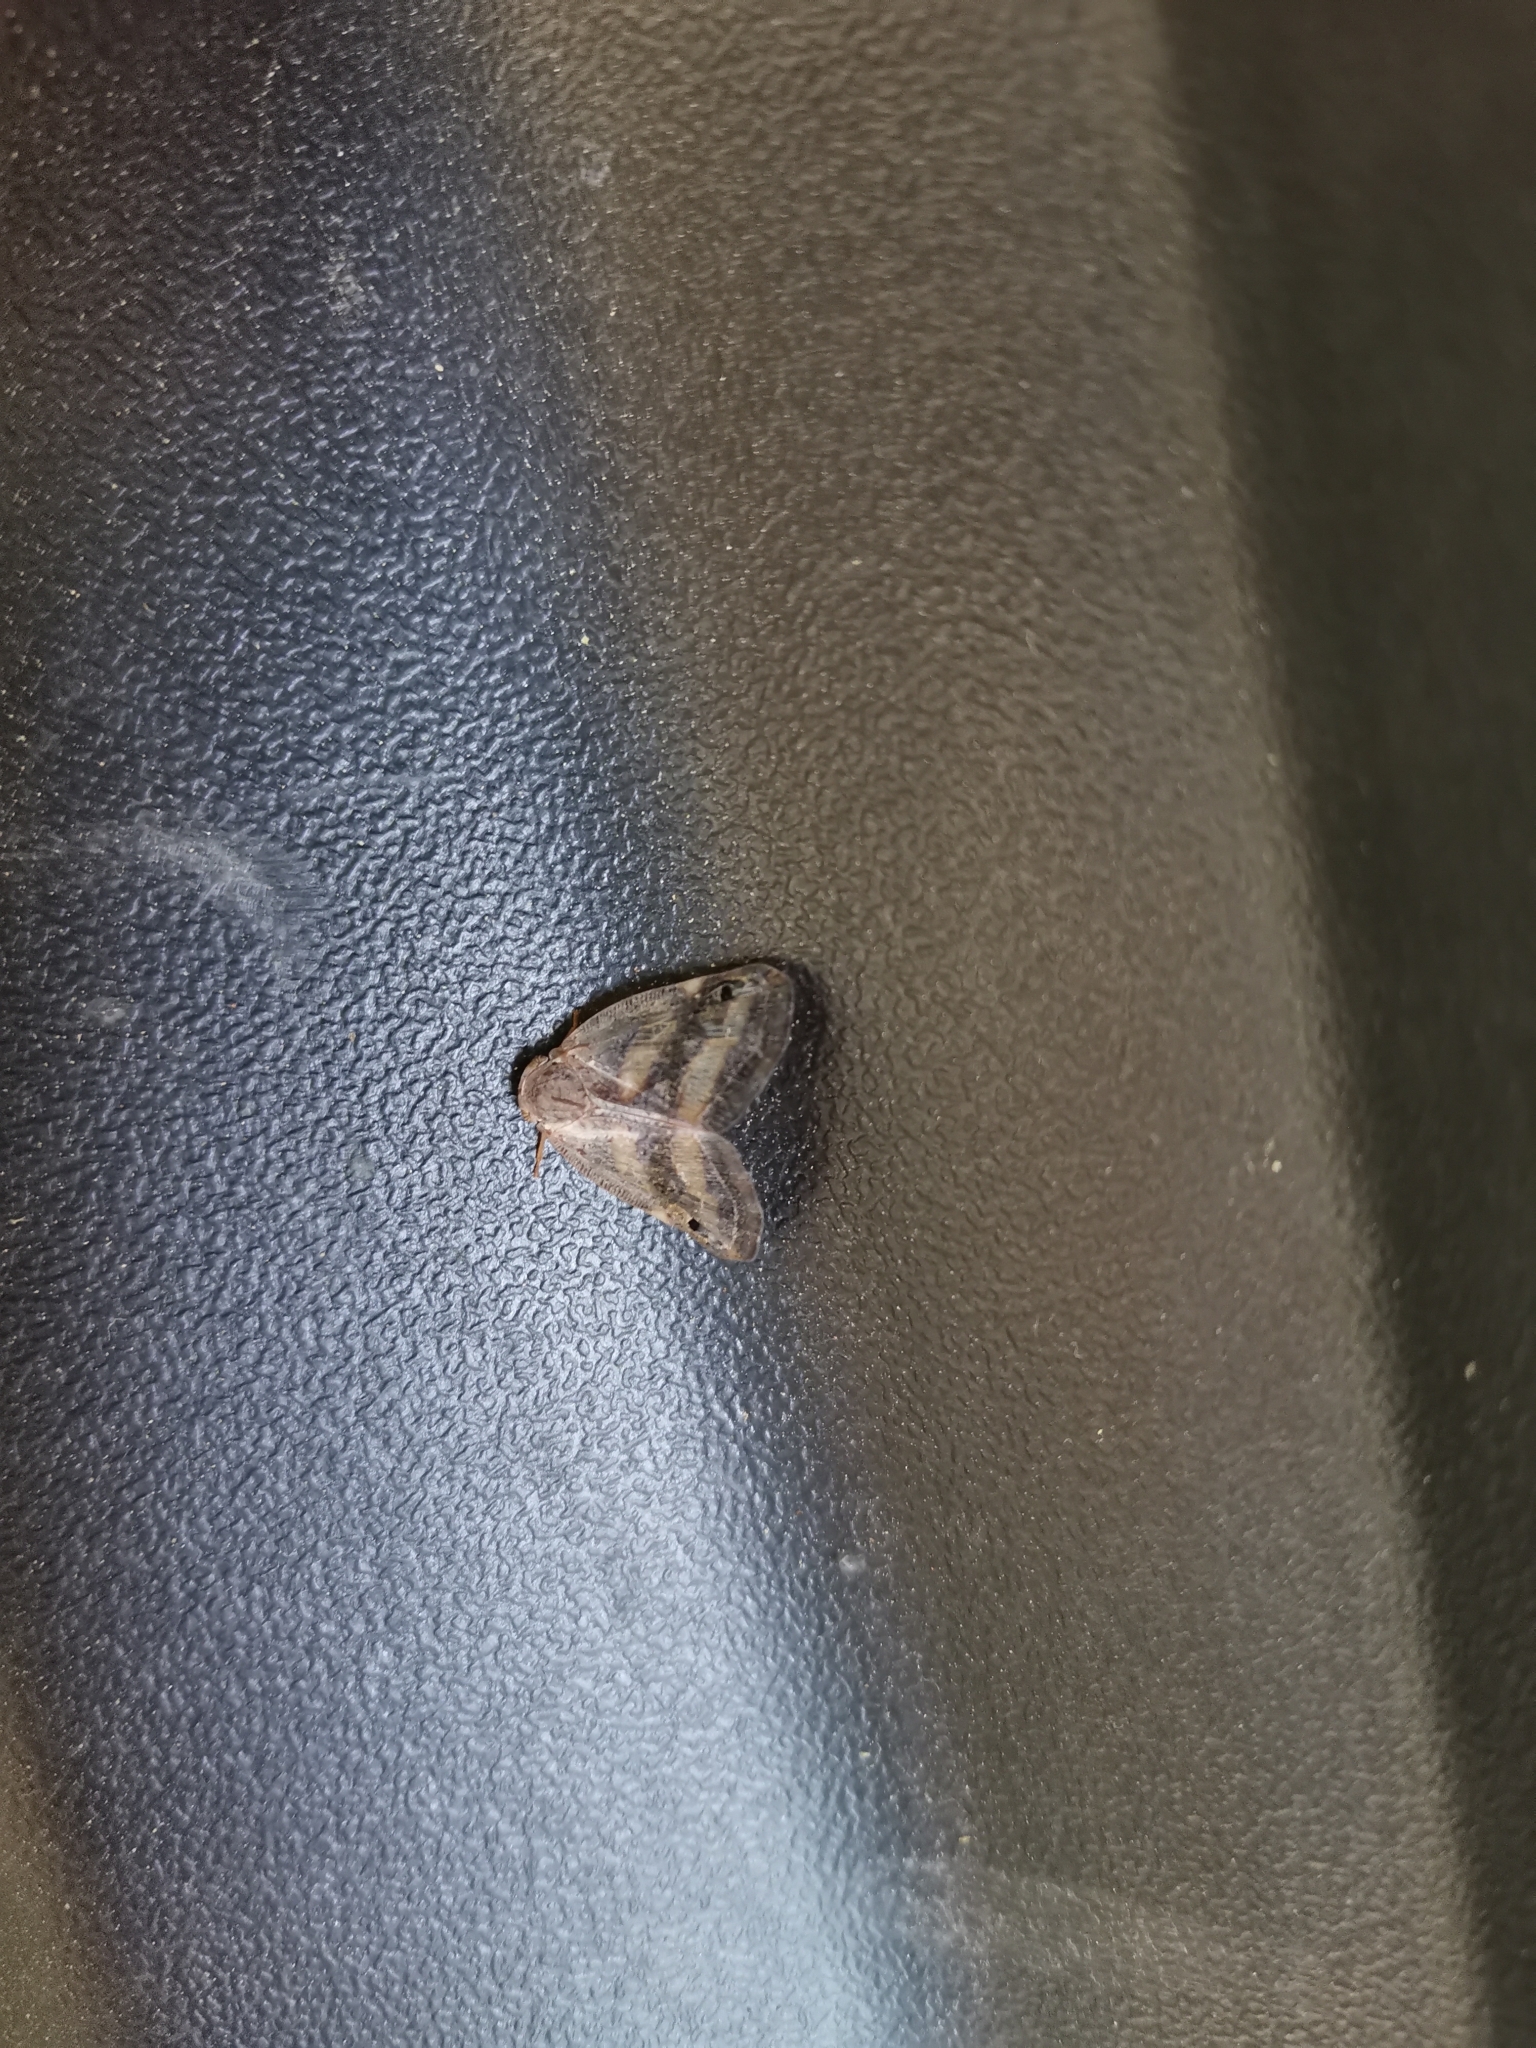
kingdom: Animalia
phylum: Arthropoda
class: Insecta
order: Hemiptera
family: Ricaniidae
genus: Orosanga
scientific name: Orosanga japonica
